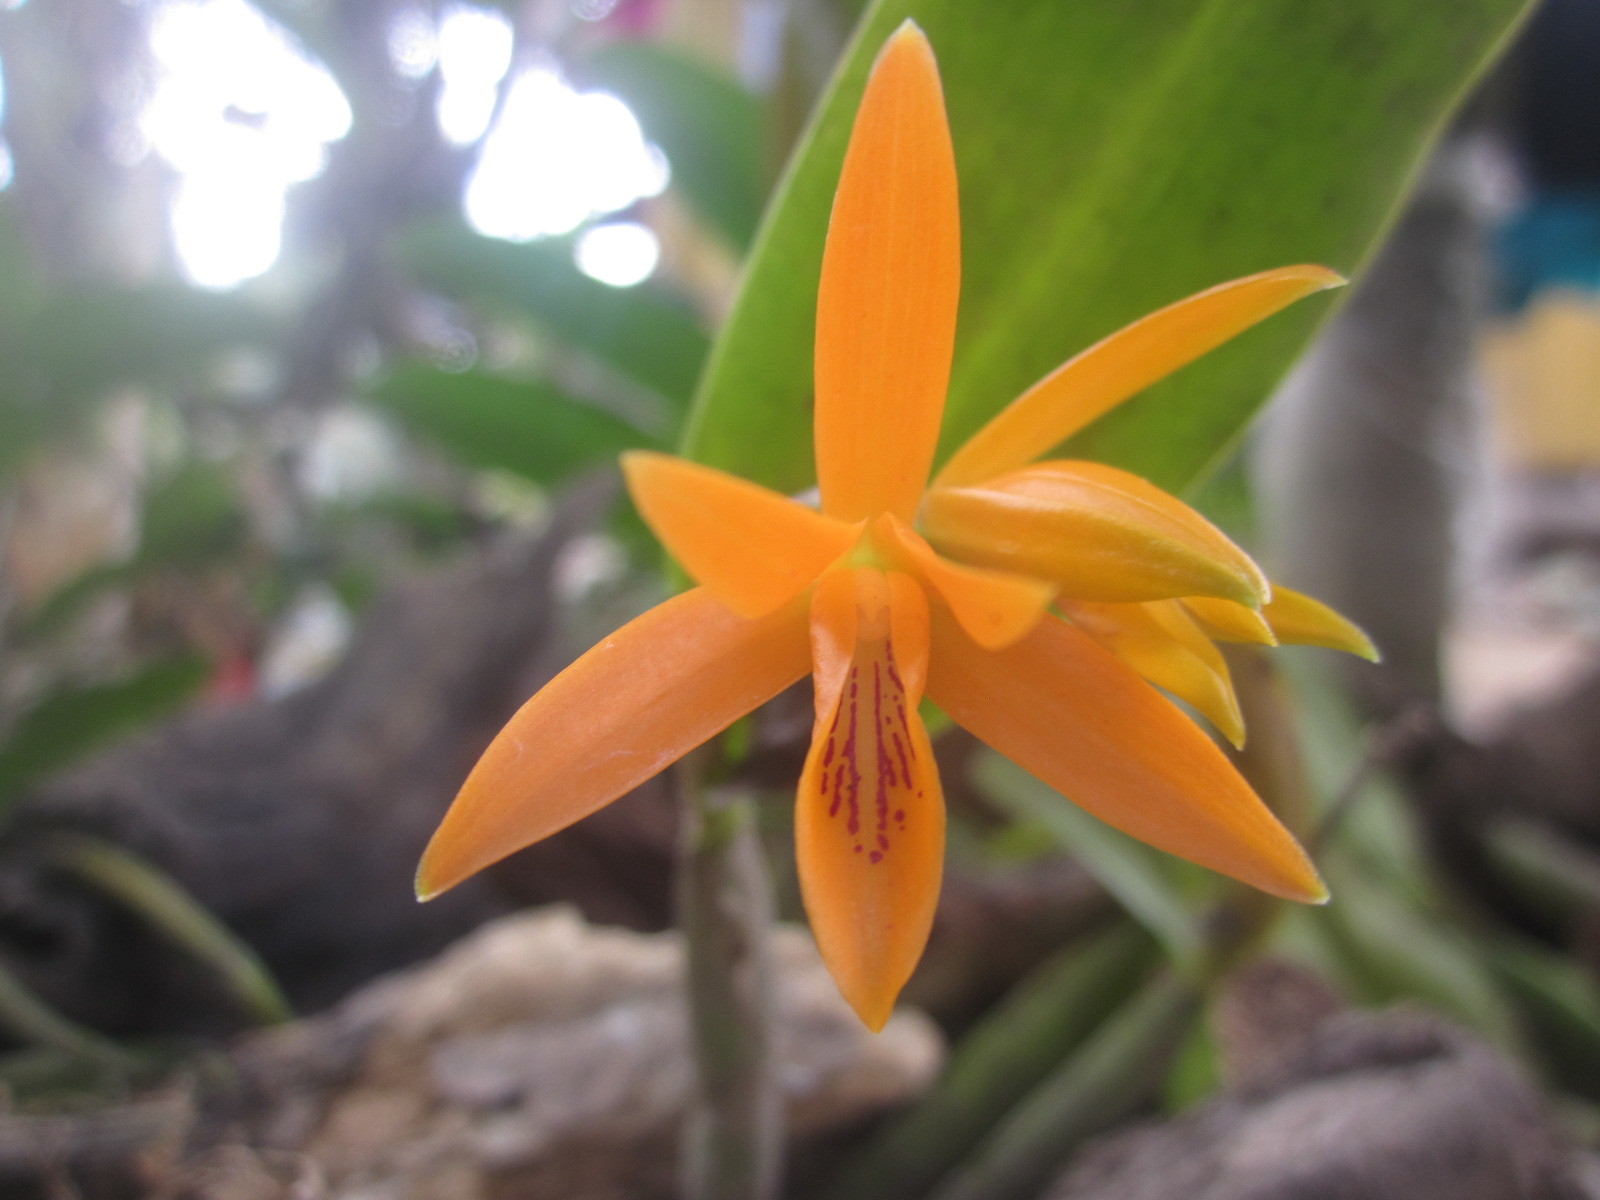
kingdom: Plantae
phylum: Tracheophyta
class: Liliopsida
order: Asparagales
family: Orchidaceae
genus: Guarianthe
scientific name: Guarianthe aurantiaca
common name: Orange cattleya
